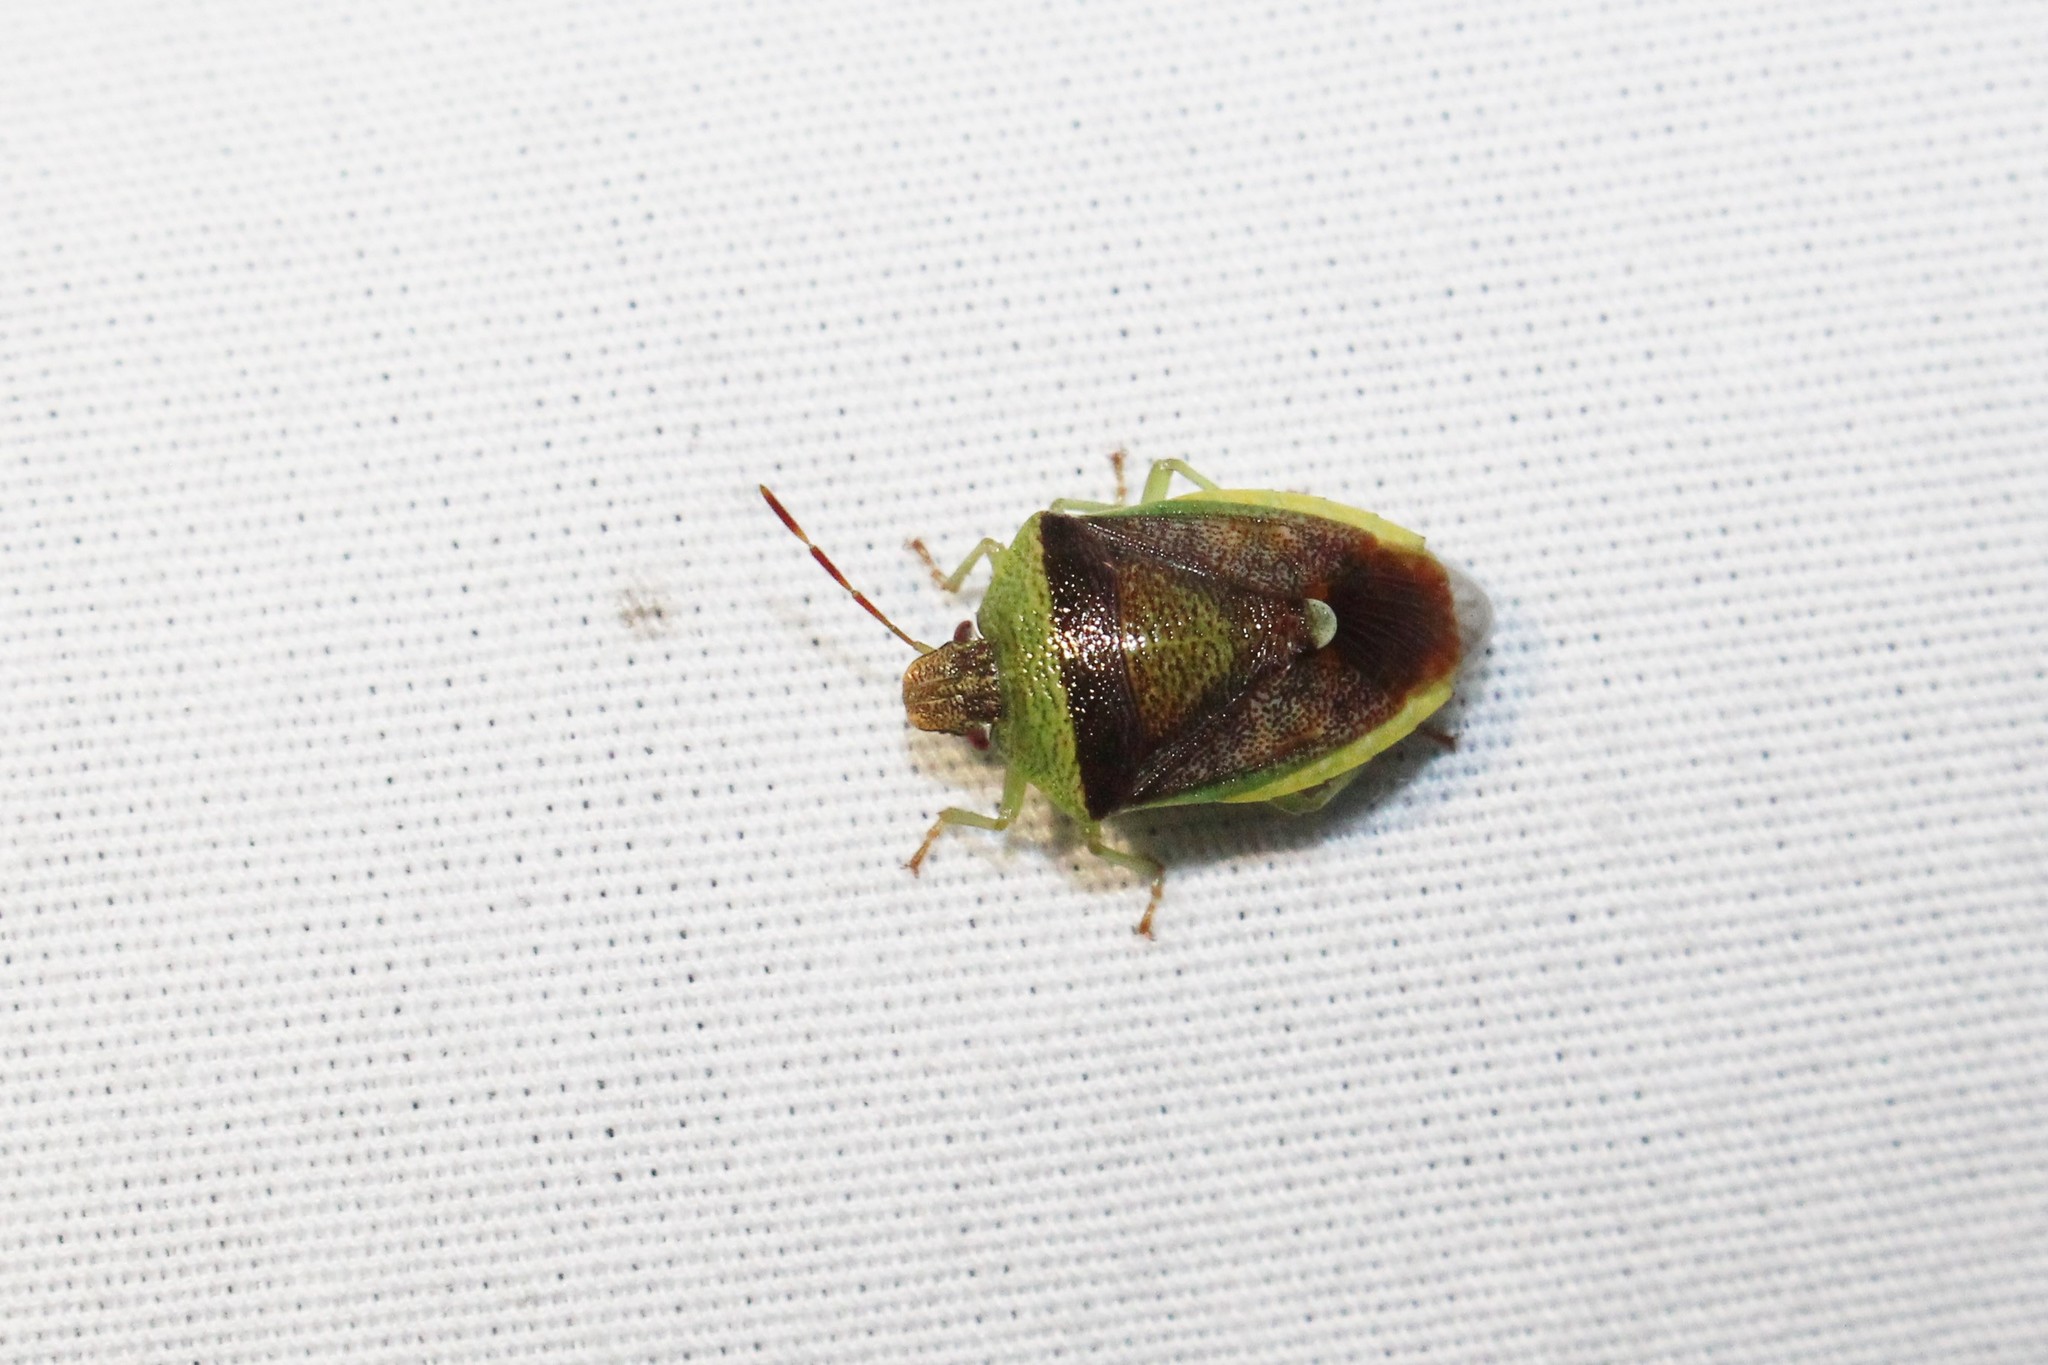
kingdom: Animalia
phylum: Arthropoda
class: Insecta
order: Hemiptera
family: Pentatomidae
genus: Banasa
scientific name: Banasa dimidiata
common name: Green burgundy stink bug
